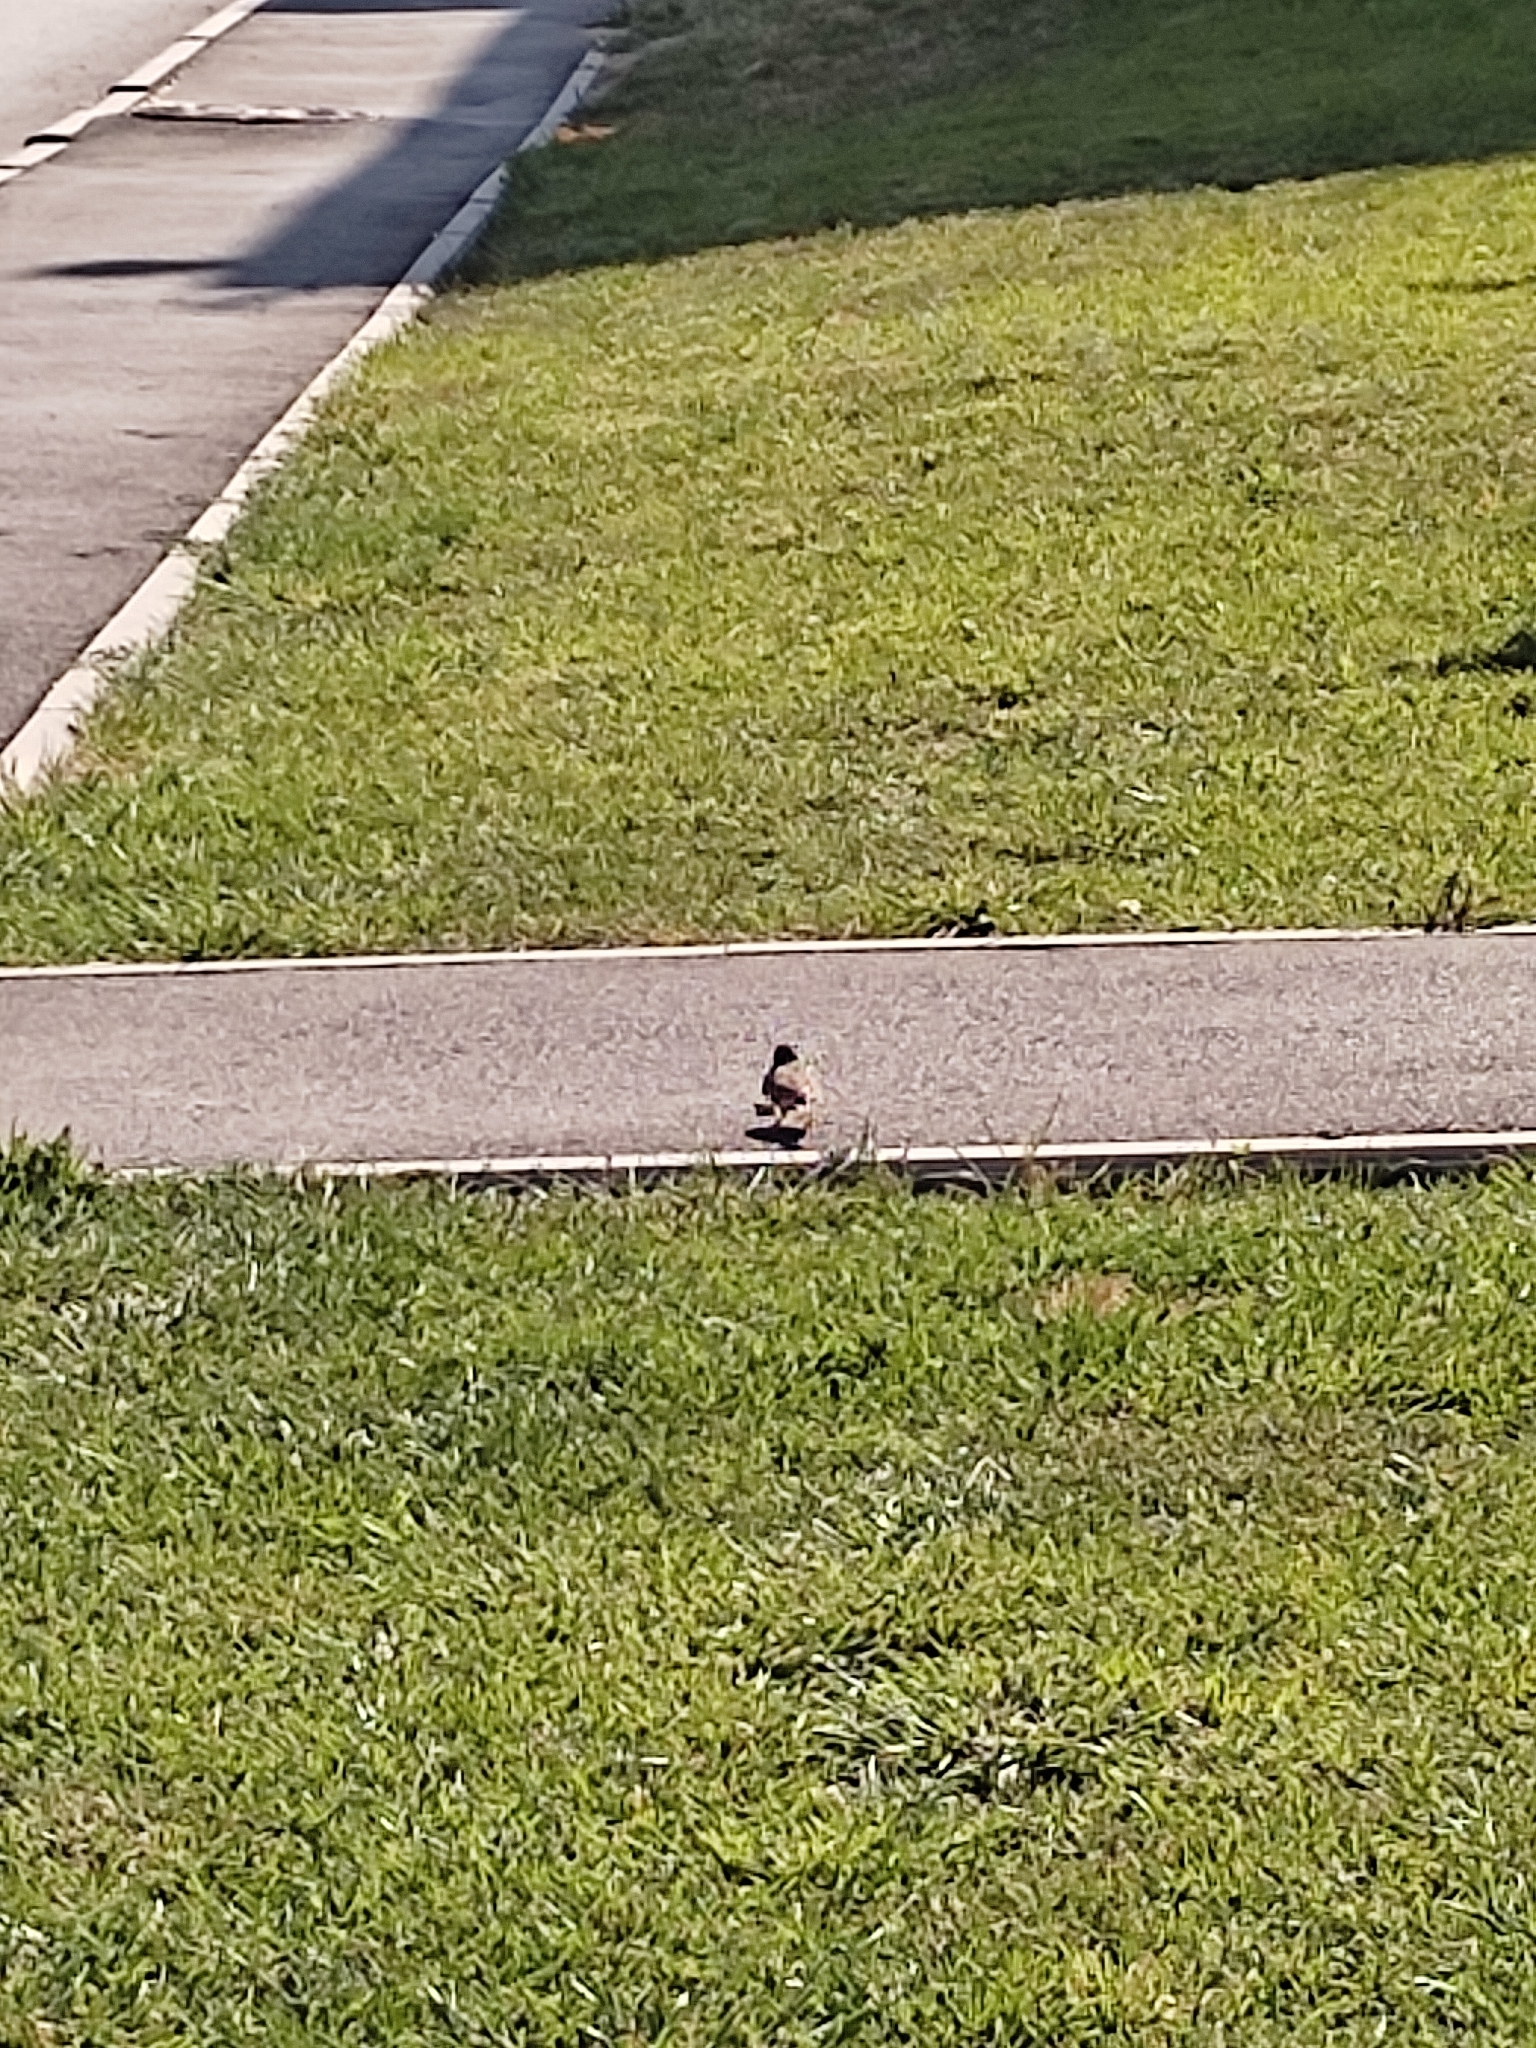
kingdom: Animalia
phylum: Chordata
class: Aves
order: Passeriformes
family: Alaudidae
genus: Galerida
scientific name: Galerida cristata
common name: Crested lark
